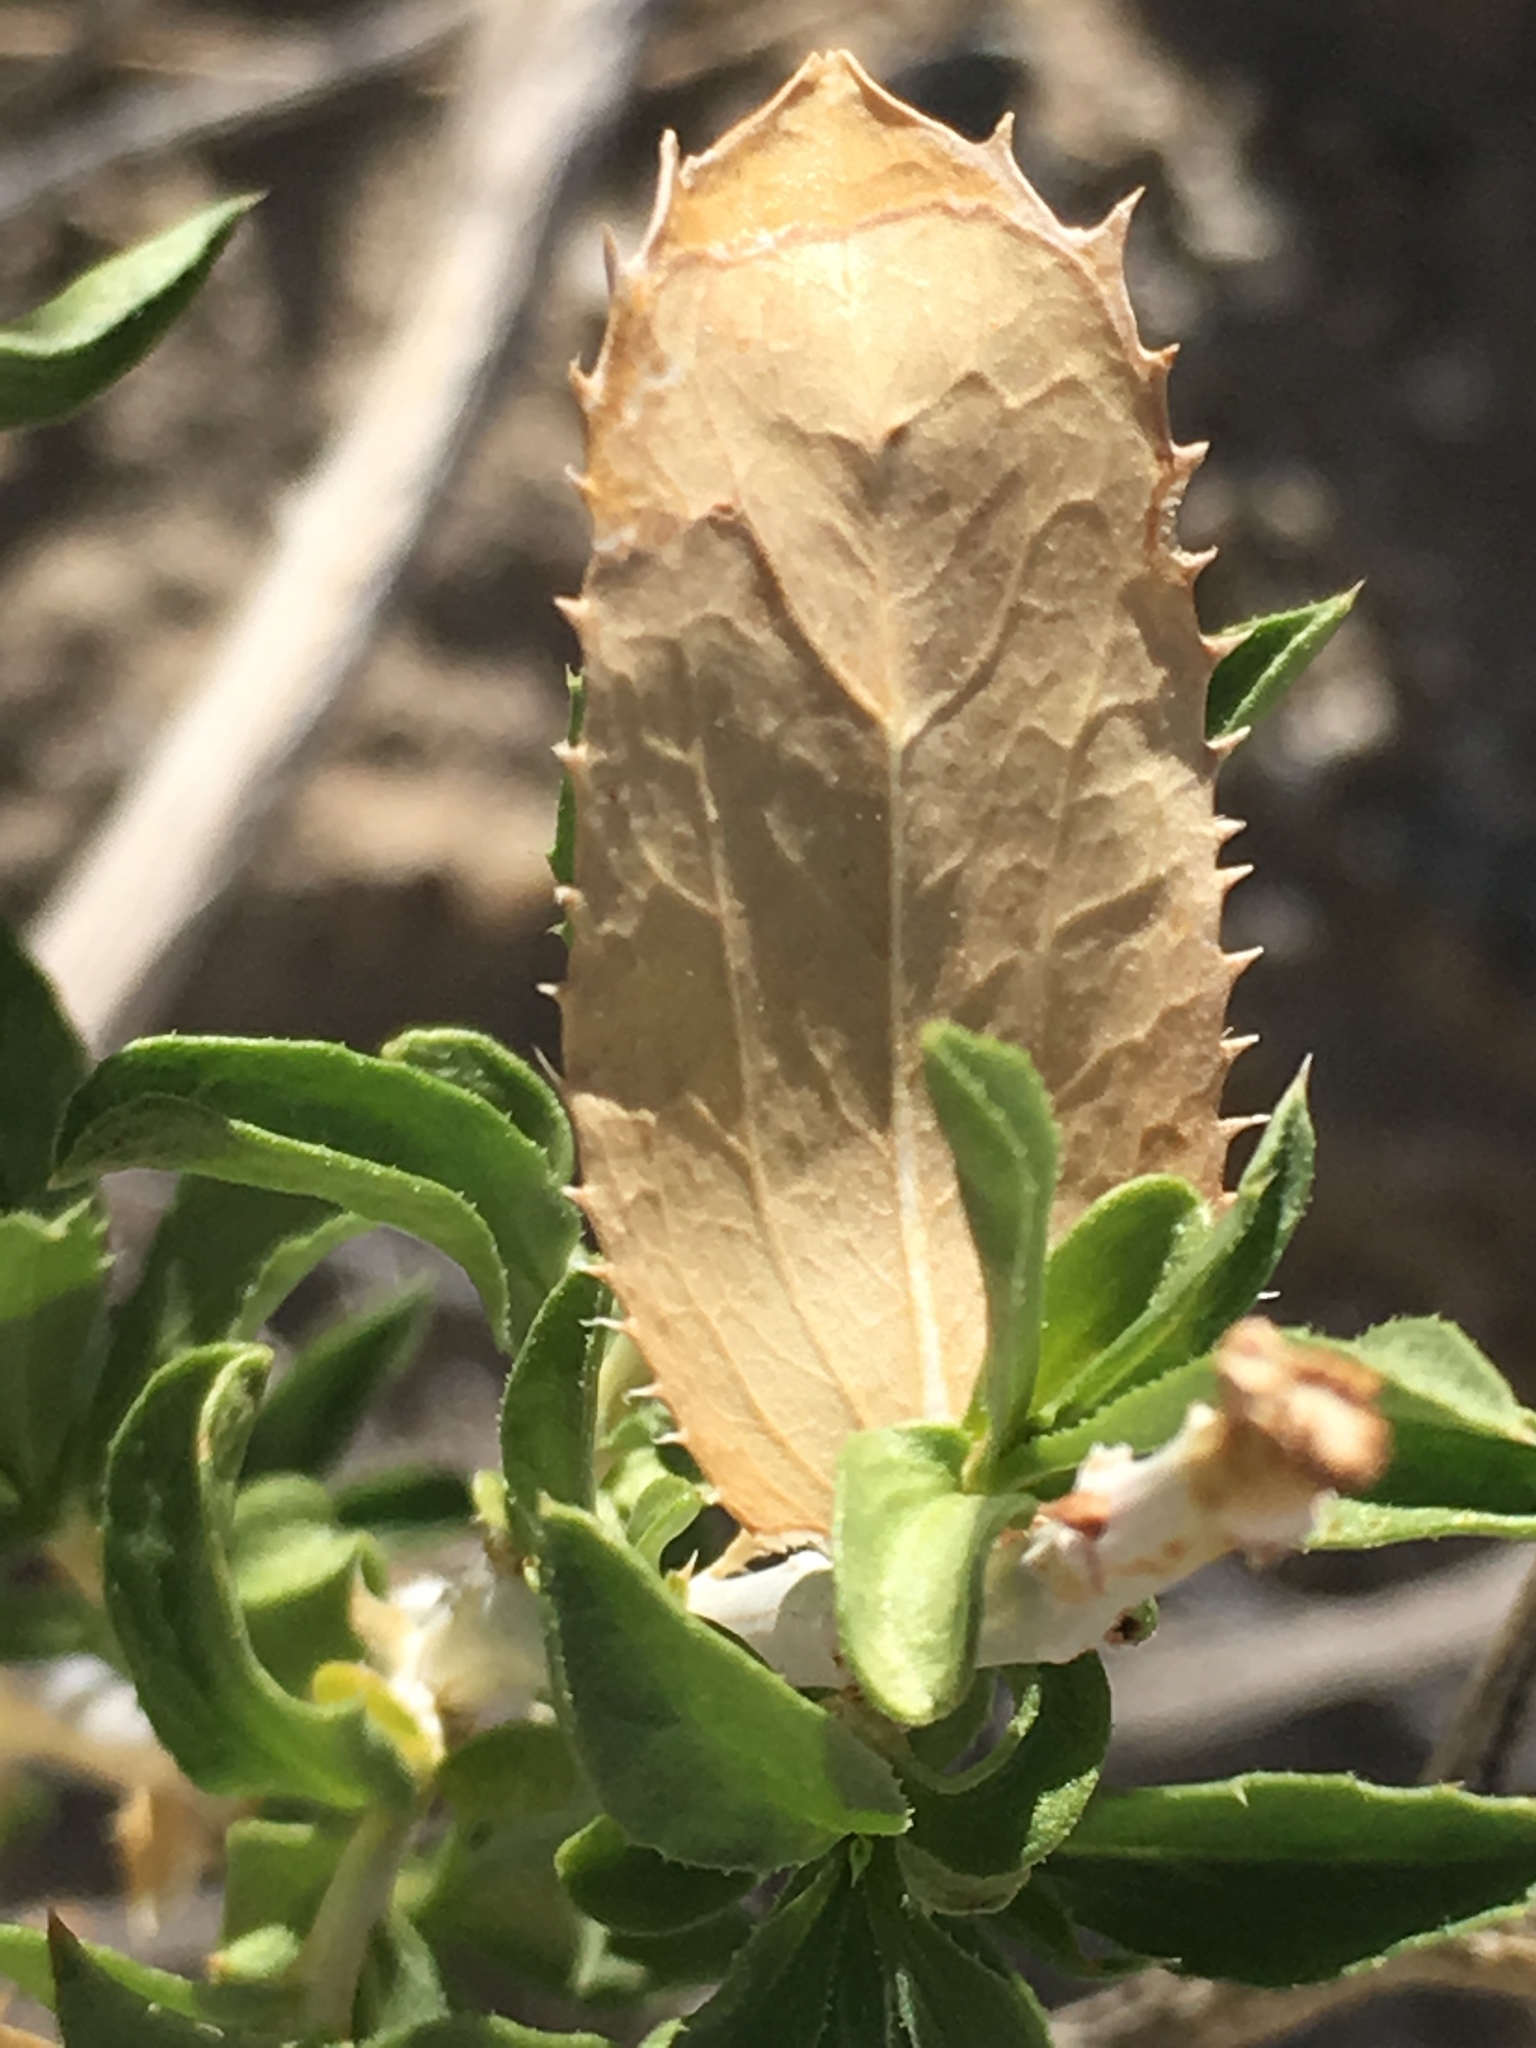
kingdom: Plantae
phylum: Tracheophyta
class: Magnoliopsida
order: Asterales
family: Asteraceae
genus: Xylorhiza
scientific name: Xylorhiza orcuttii
